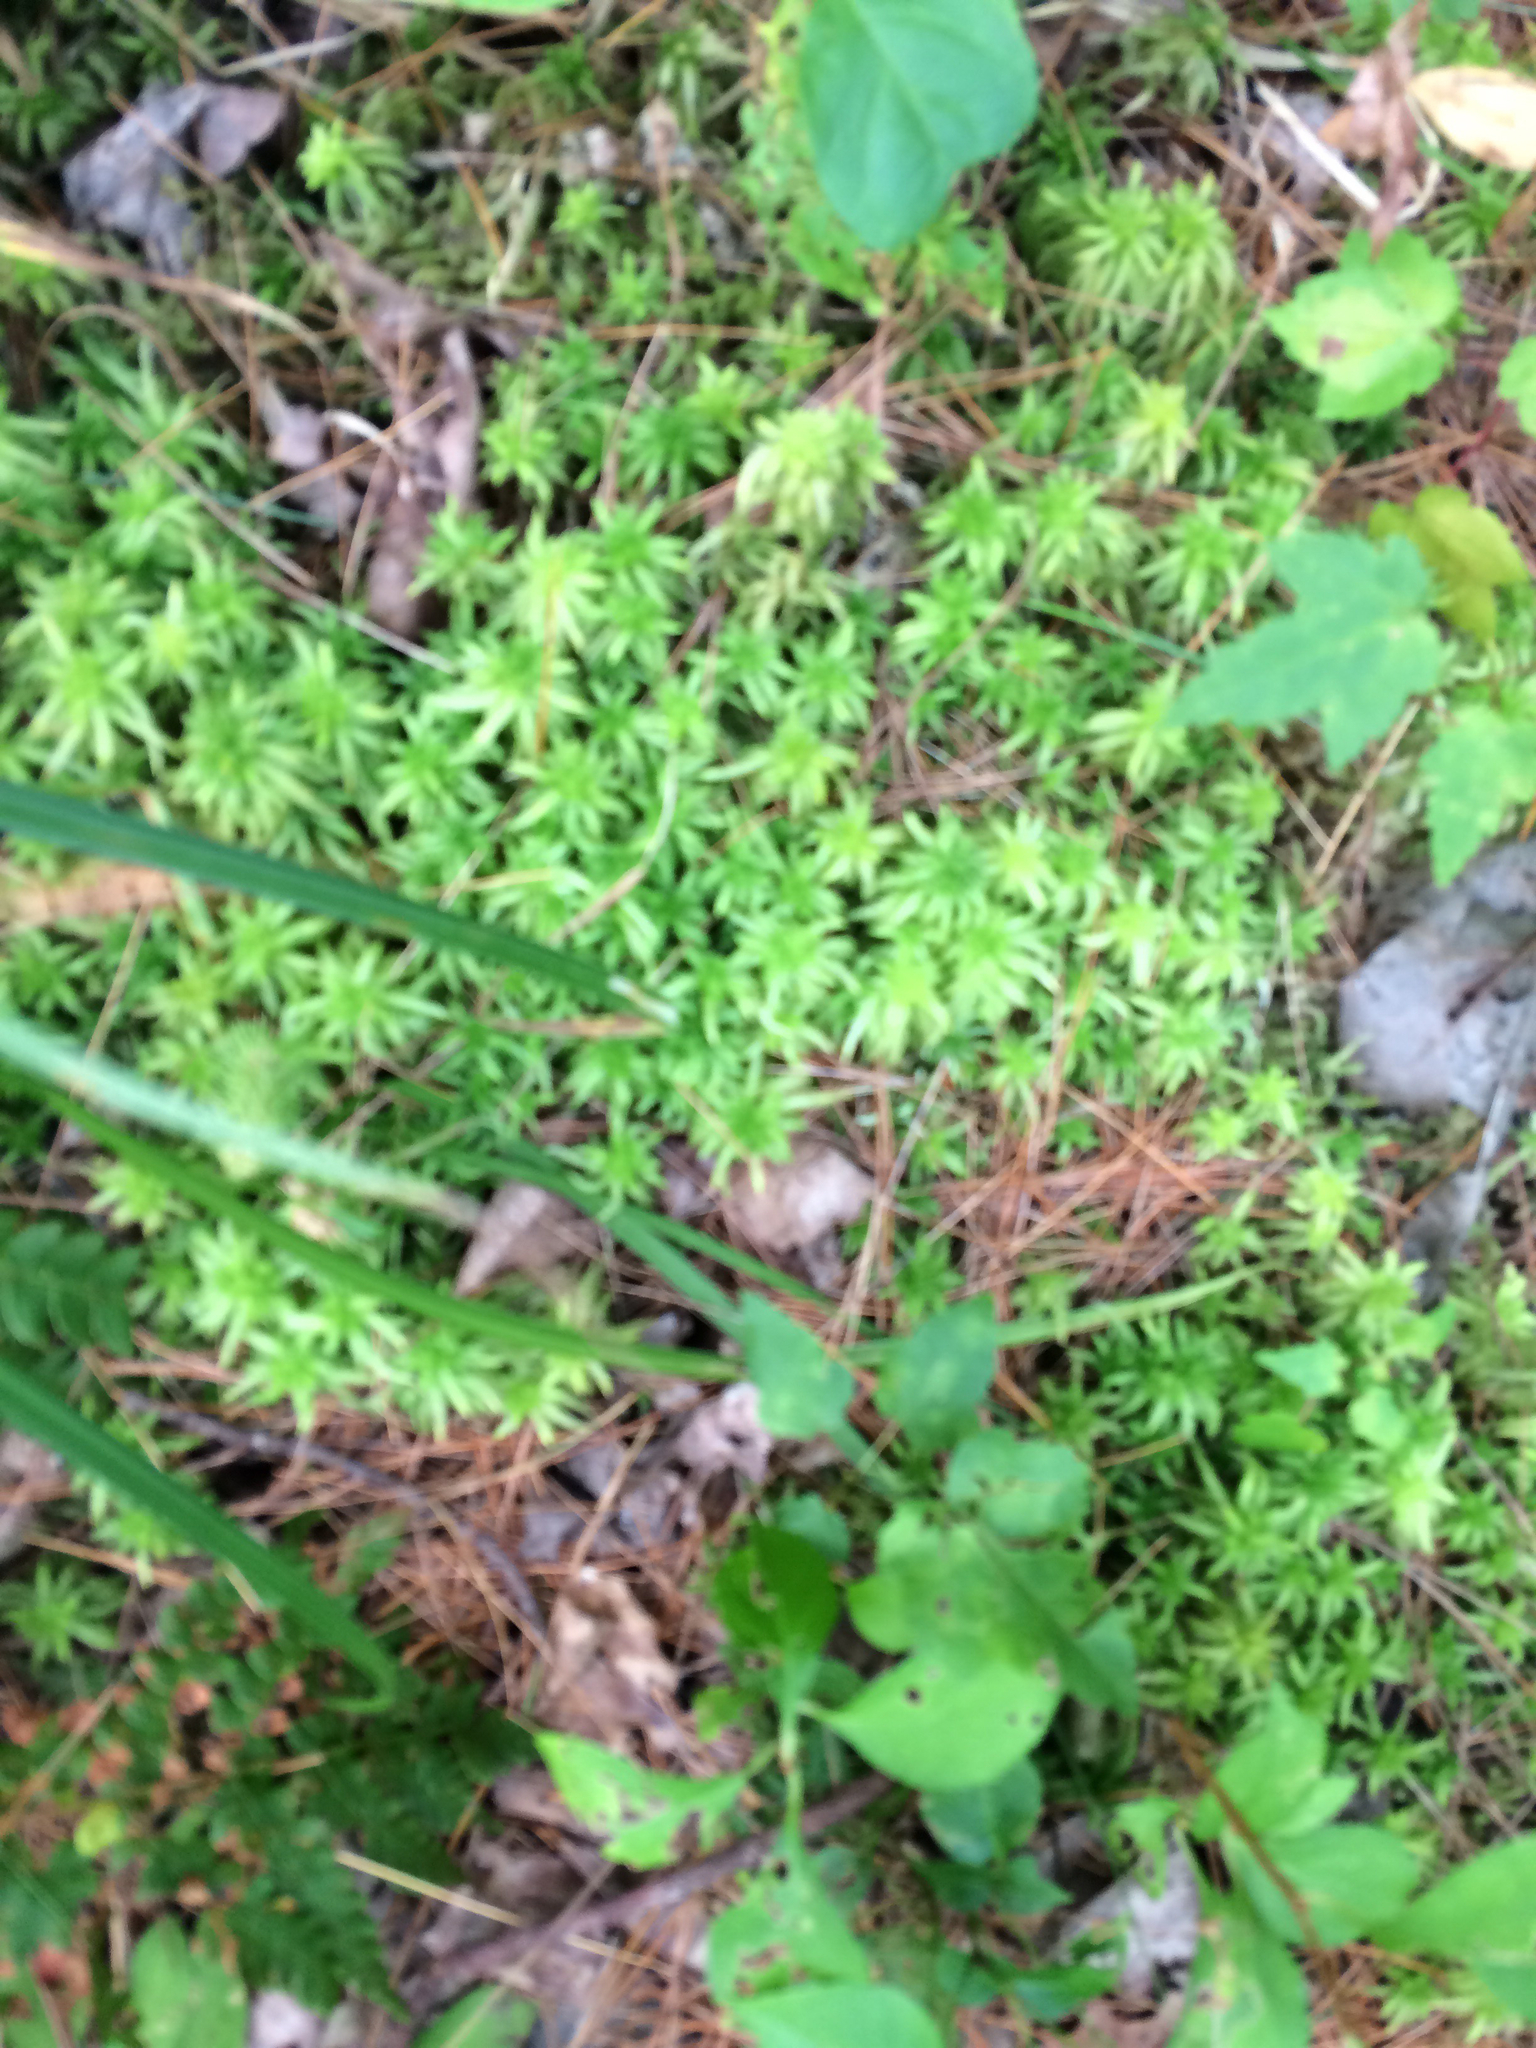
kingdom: Plantae
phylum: Bryophyta
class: Sphagnopsida
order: Sphagnales
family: Sphagnaceae
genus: Sphagnum
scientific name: Sphagnum girgensohnii
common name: Girgensohn's peat moss
